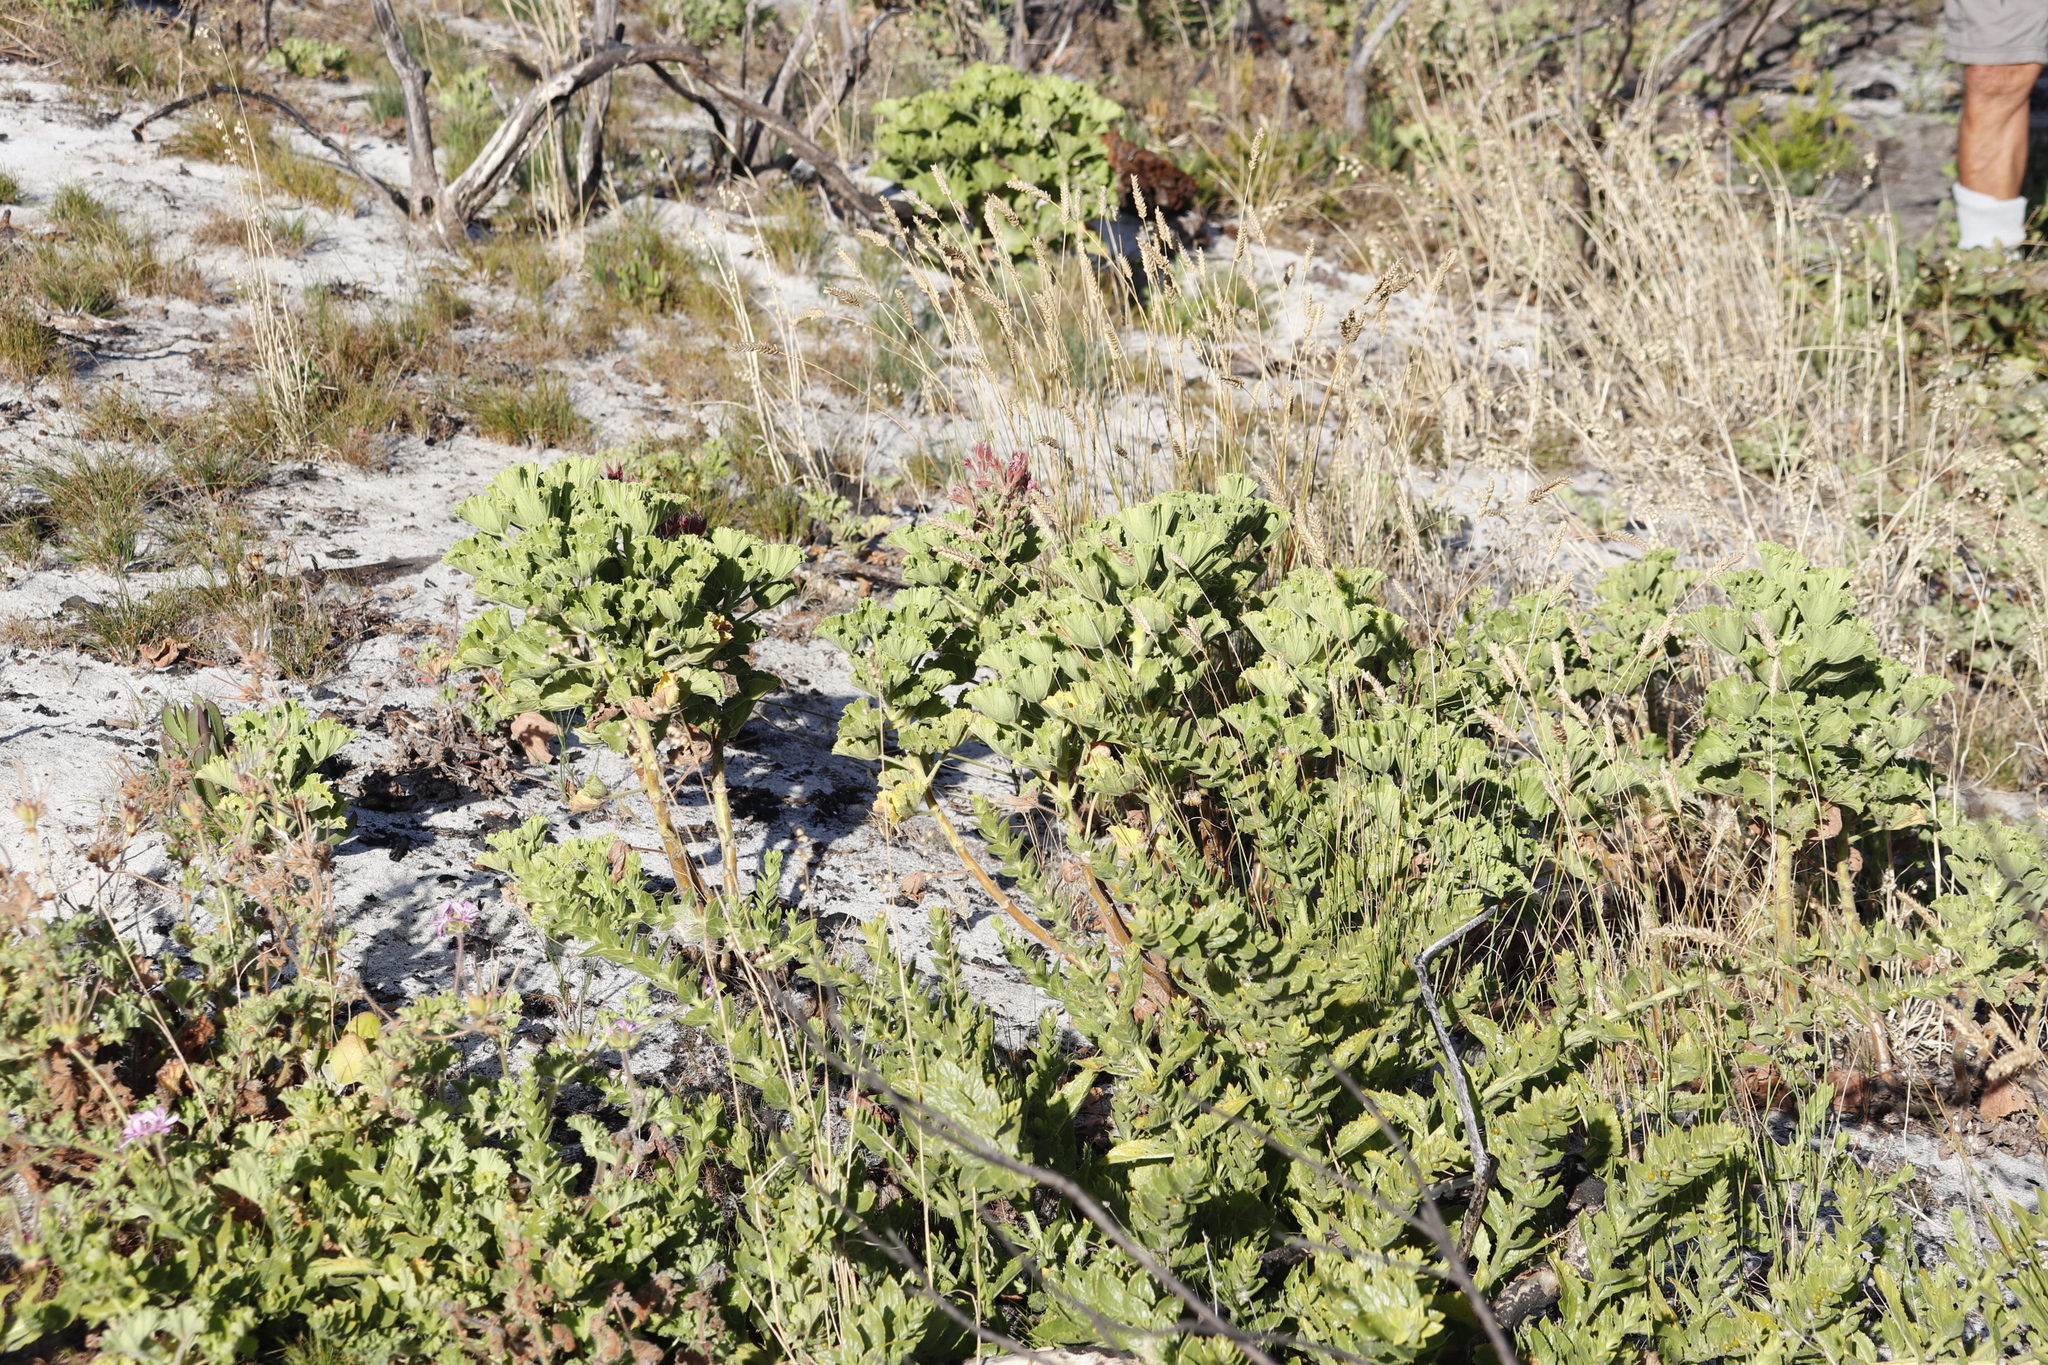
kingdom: Plantae
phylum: Tracheophyta
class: Magnoliopsida
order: Geraniales
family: Geraniaceae
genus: Pelargonium
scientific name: Pelargonium cucullatum
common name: Tree pelargonium
